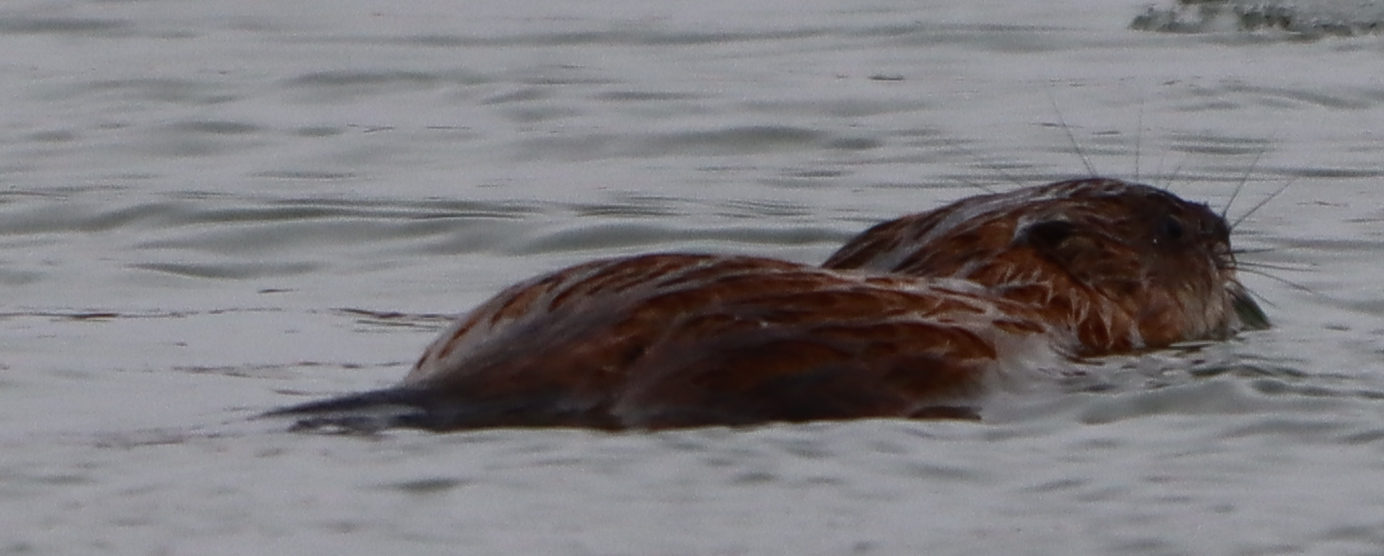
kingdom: Animalia
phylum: Chordata
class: Mammalia
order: Rodentia
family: Cricetidae
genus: Ondatra
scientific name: Ondatra zibethicus
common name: Muskrat
